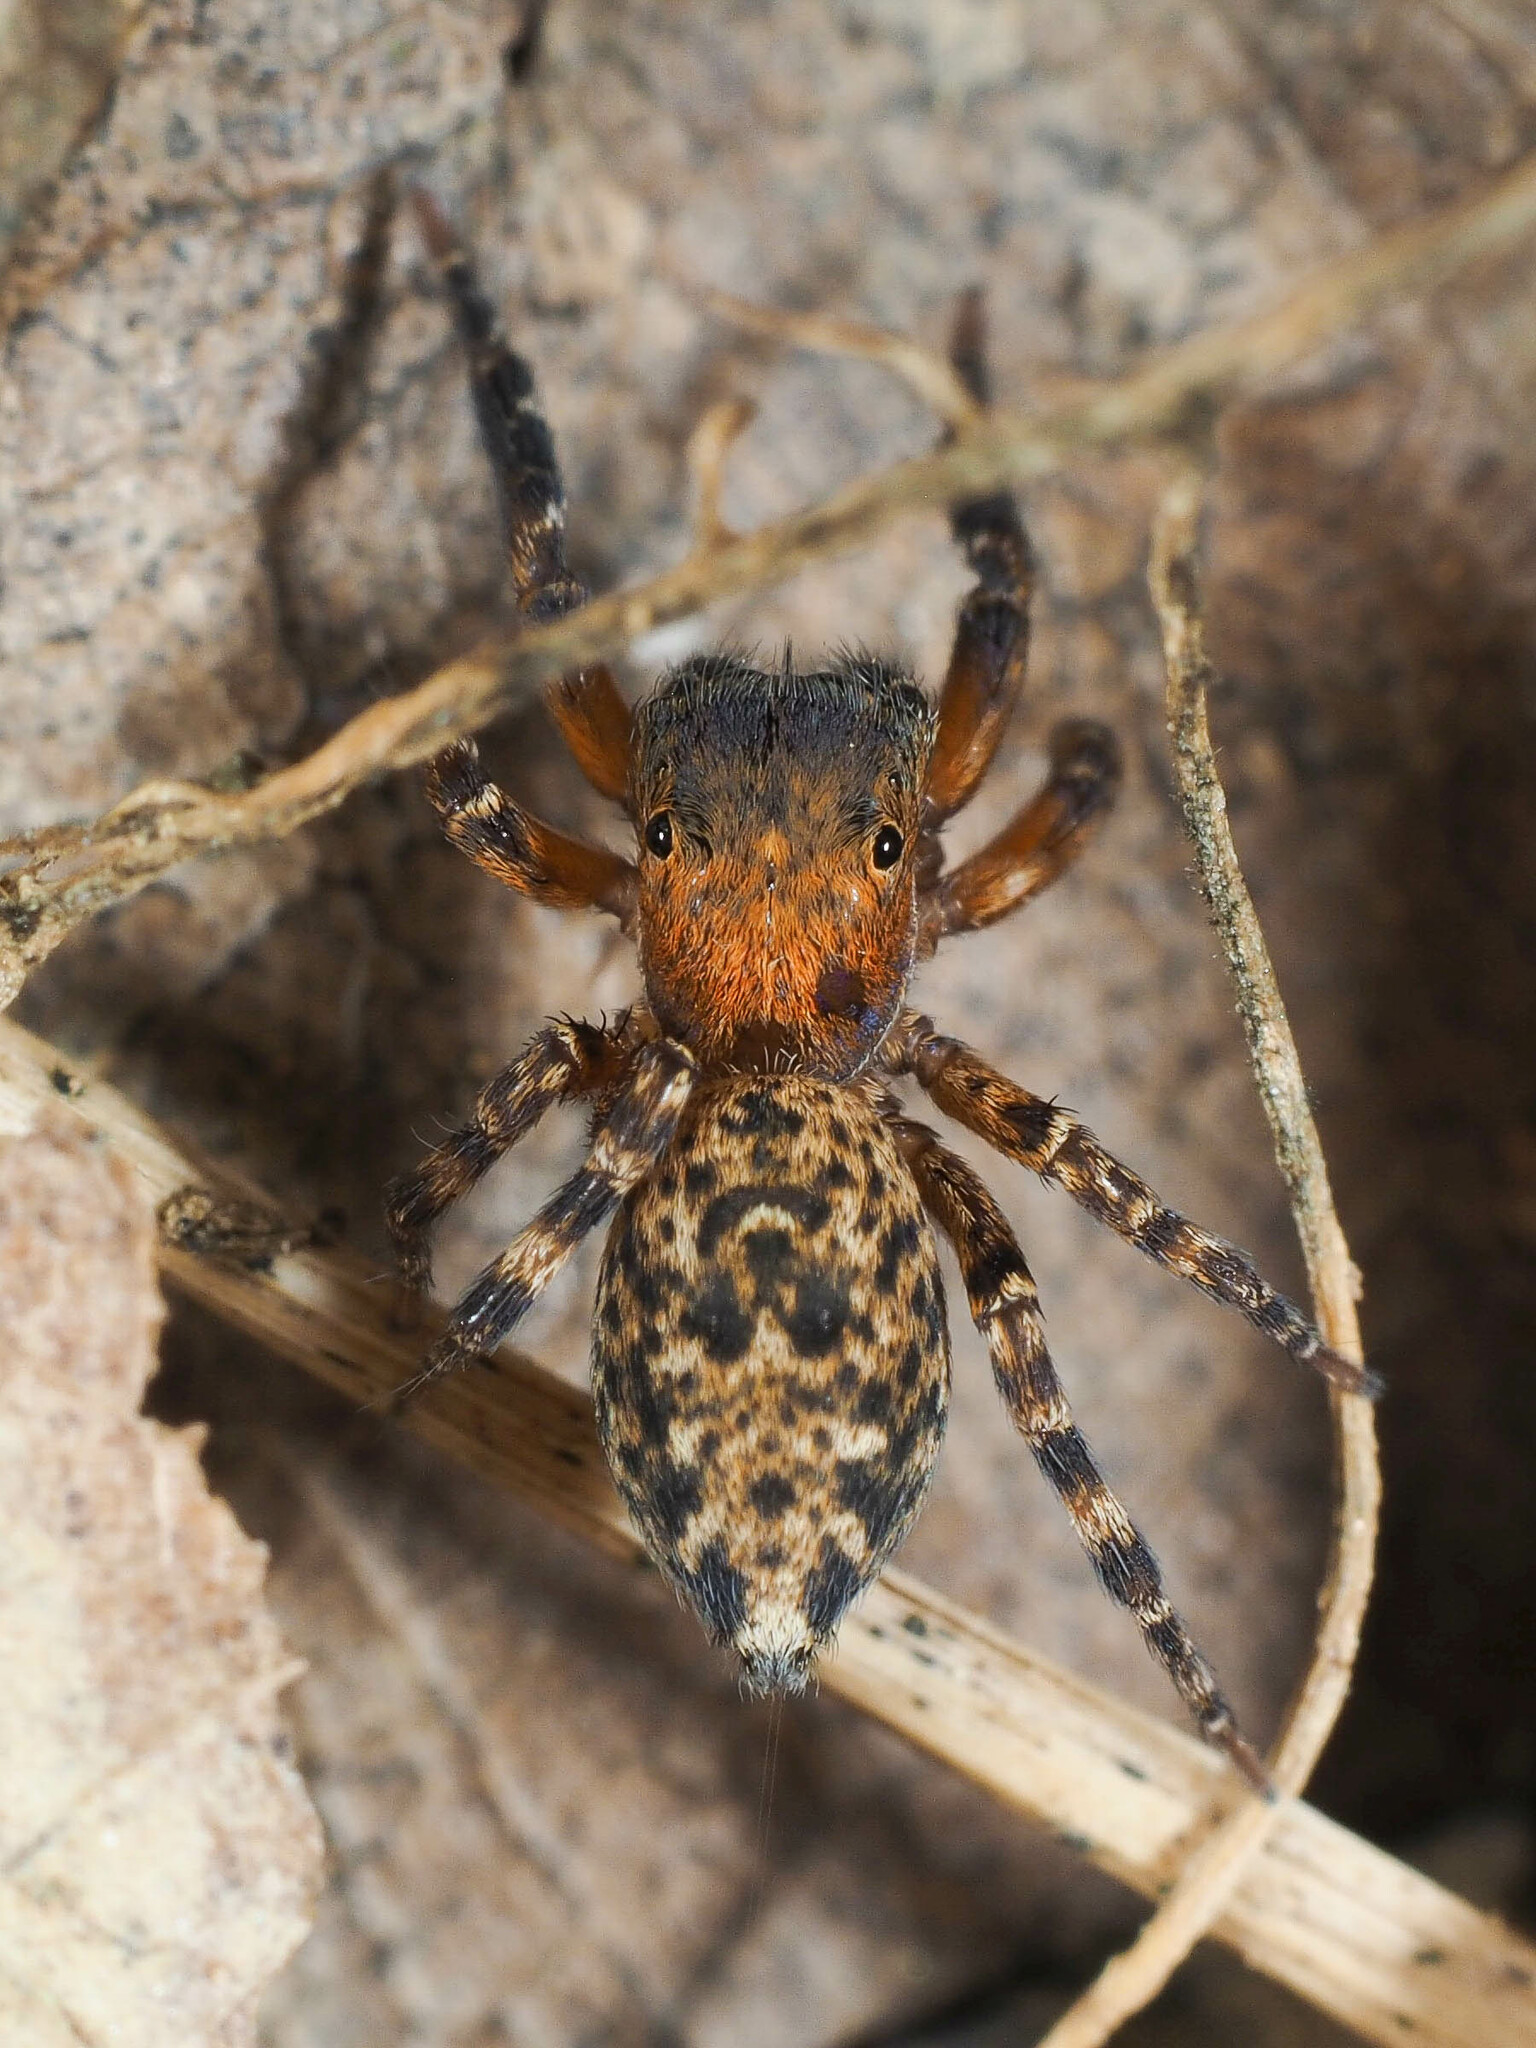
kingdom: Animalia
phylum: Arthropoda
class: Arachnida
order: Araneae
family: Salticidae
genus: Cyrba
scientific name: Cyrba algerina
